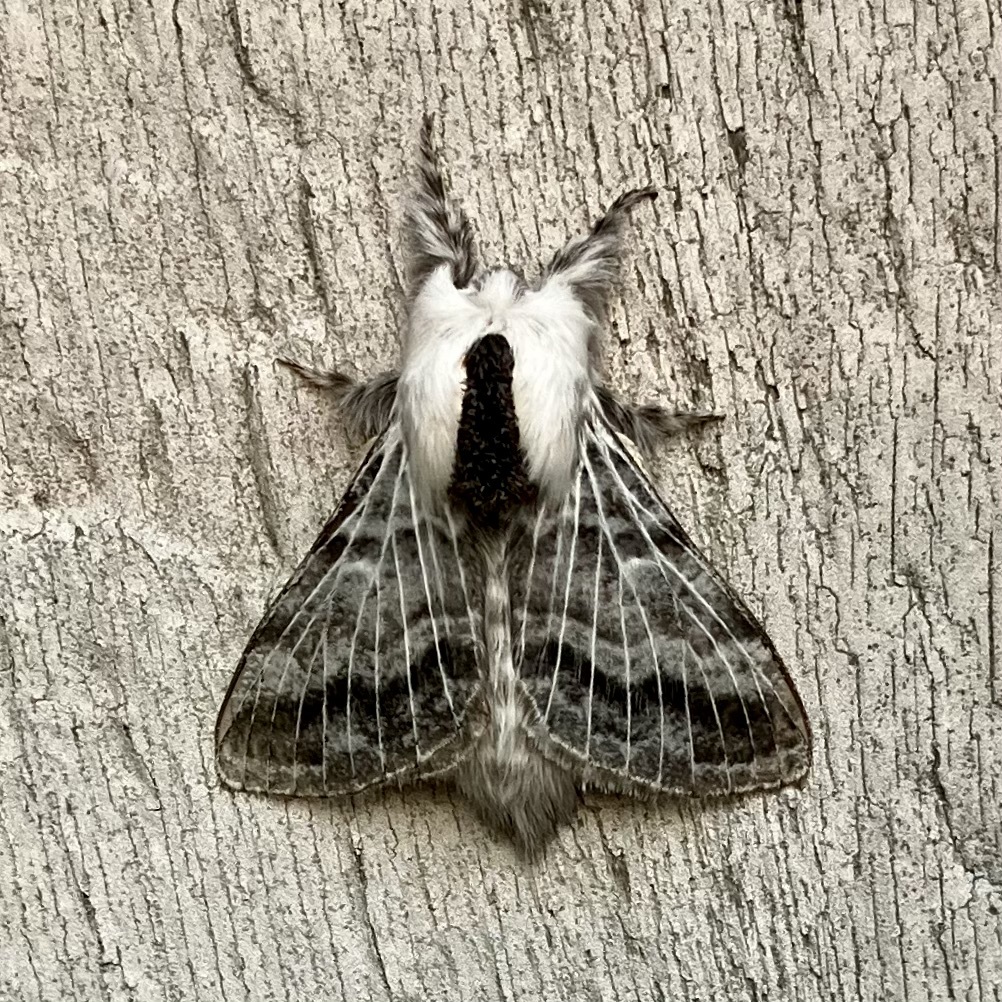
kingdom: Animalia
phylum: Arthropoda
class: Insecta
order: Lepidoptera
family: Lasiocampidae
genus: Tolype
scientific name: Tolype distincta
